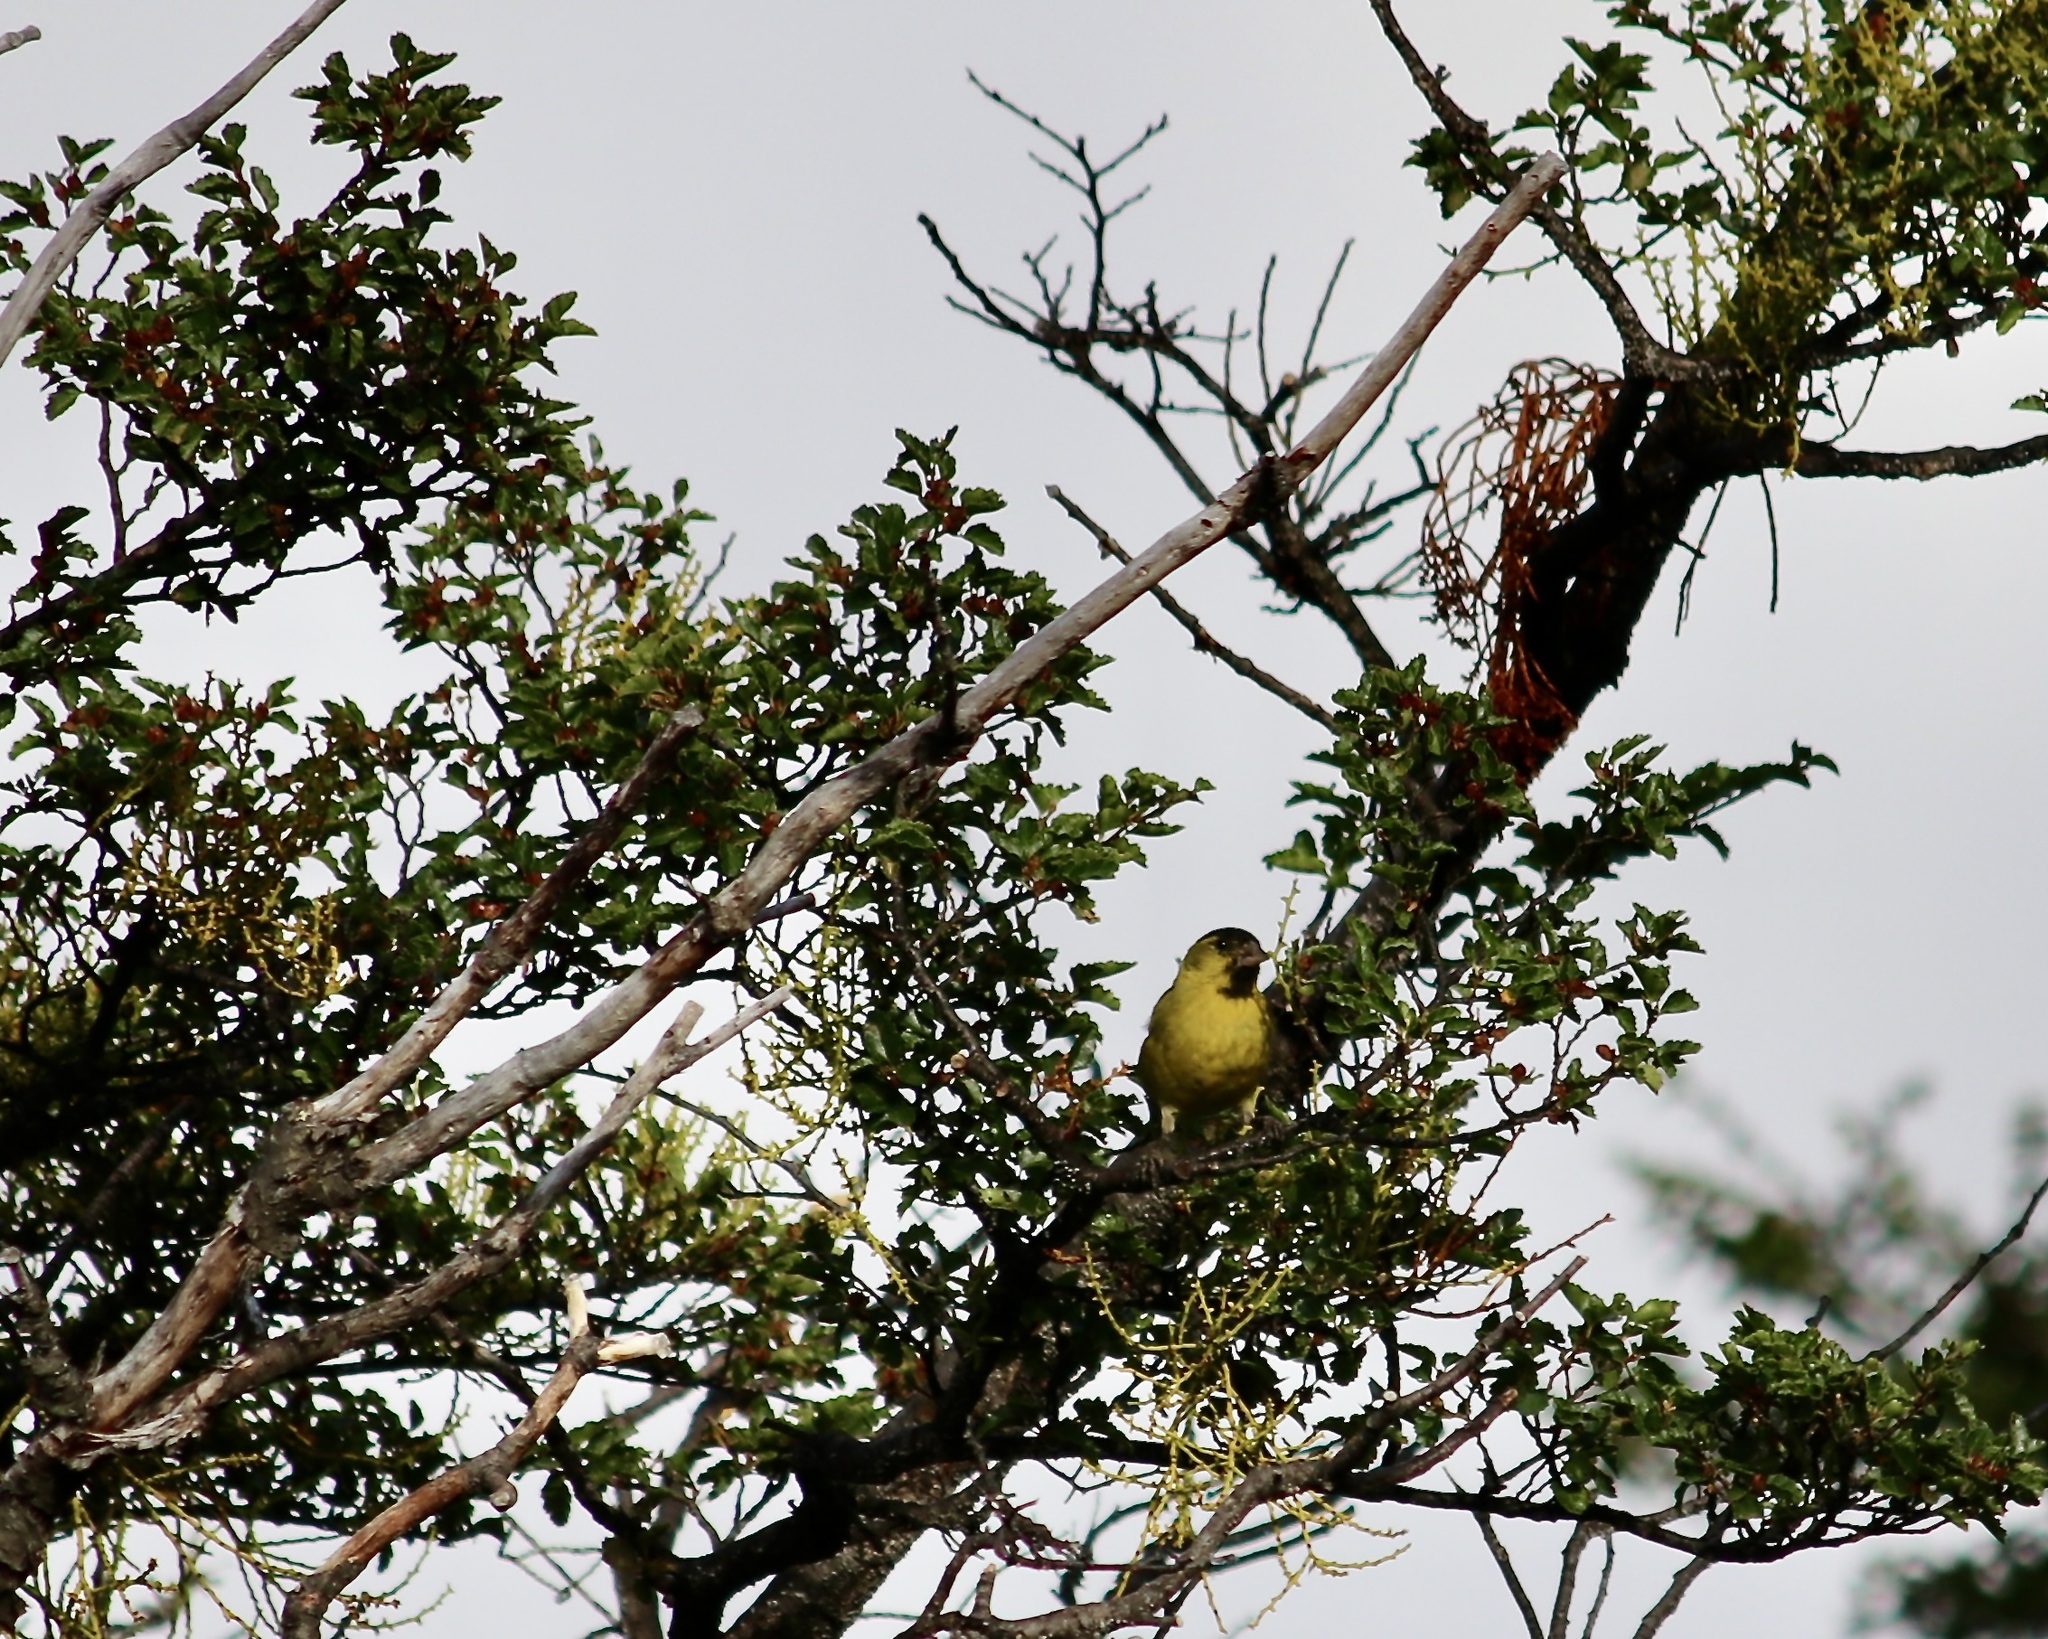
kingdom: Animalia
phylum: Chordata
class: Aves
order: Passeriformes
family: Fringillidae
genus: Spinus
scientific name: Spinus barbatus
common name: Black-chinned siskin
